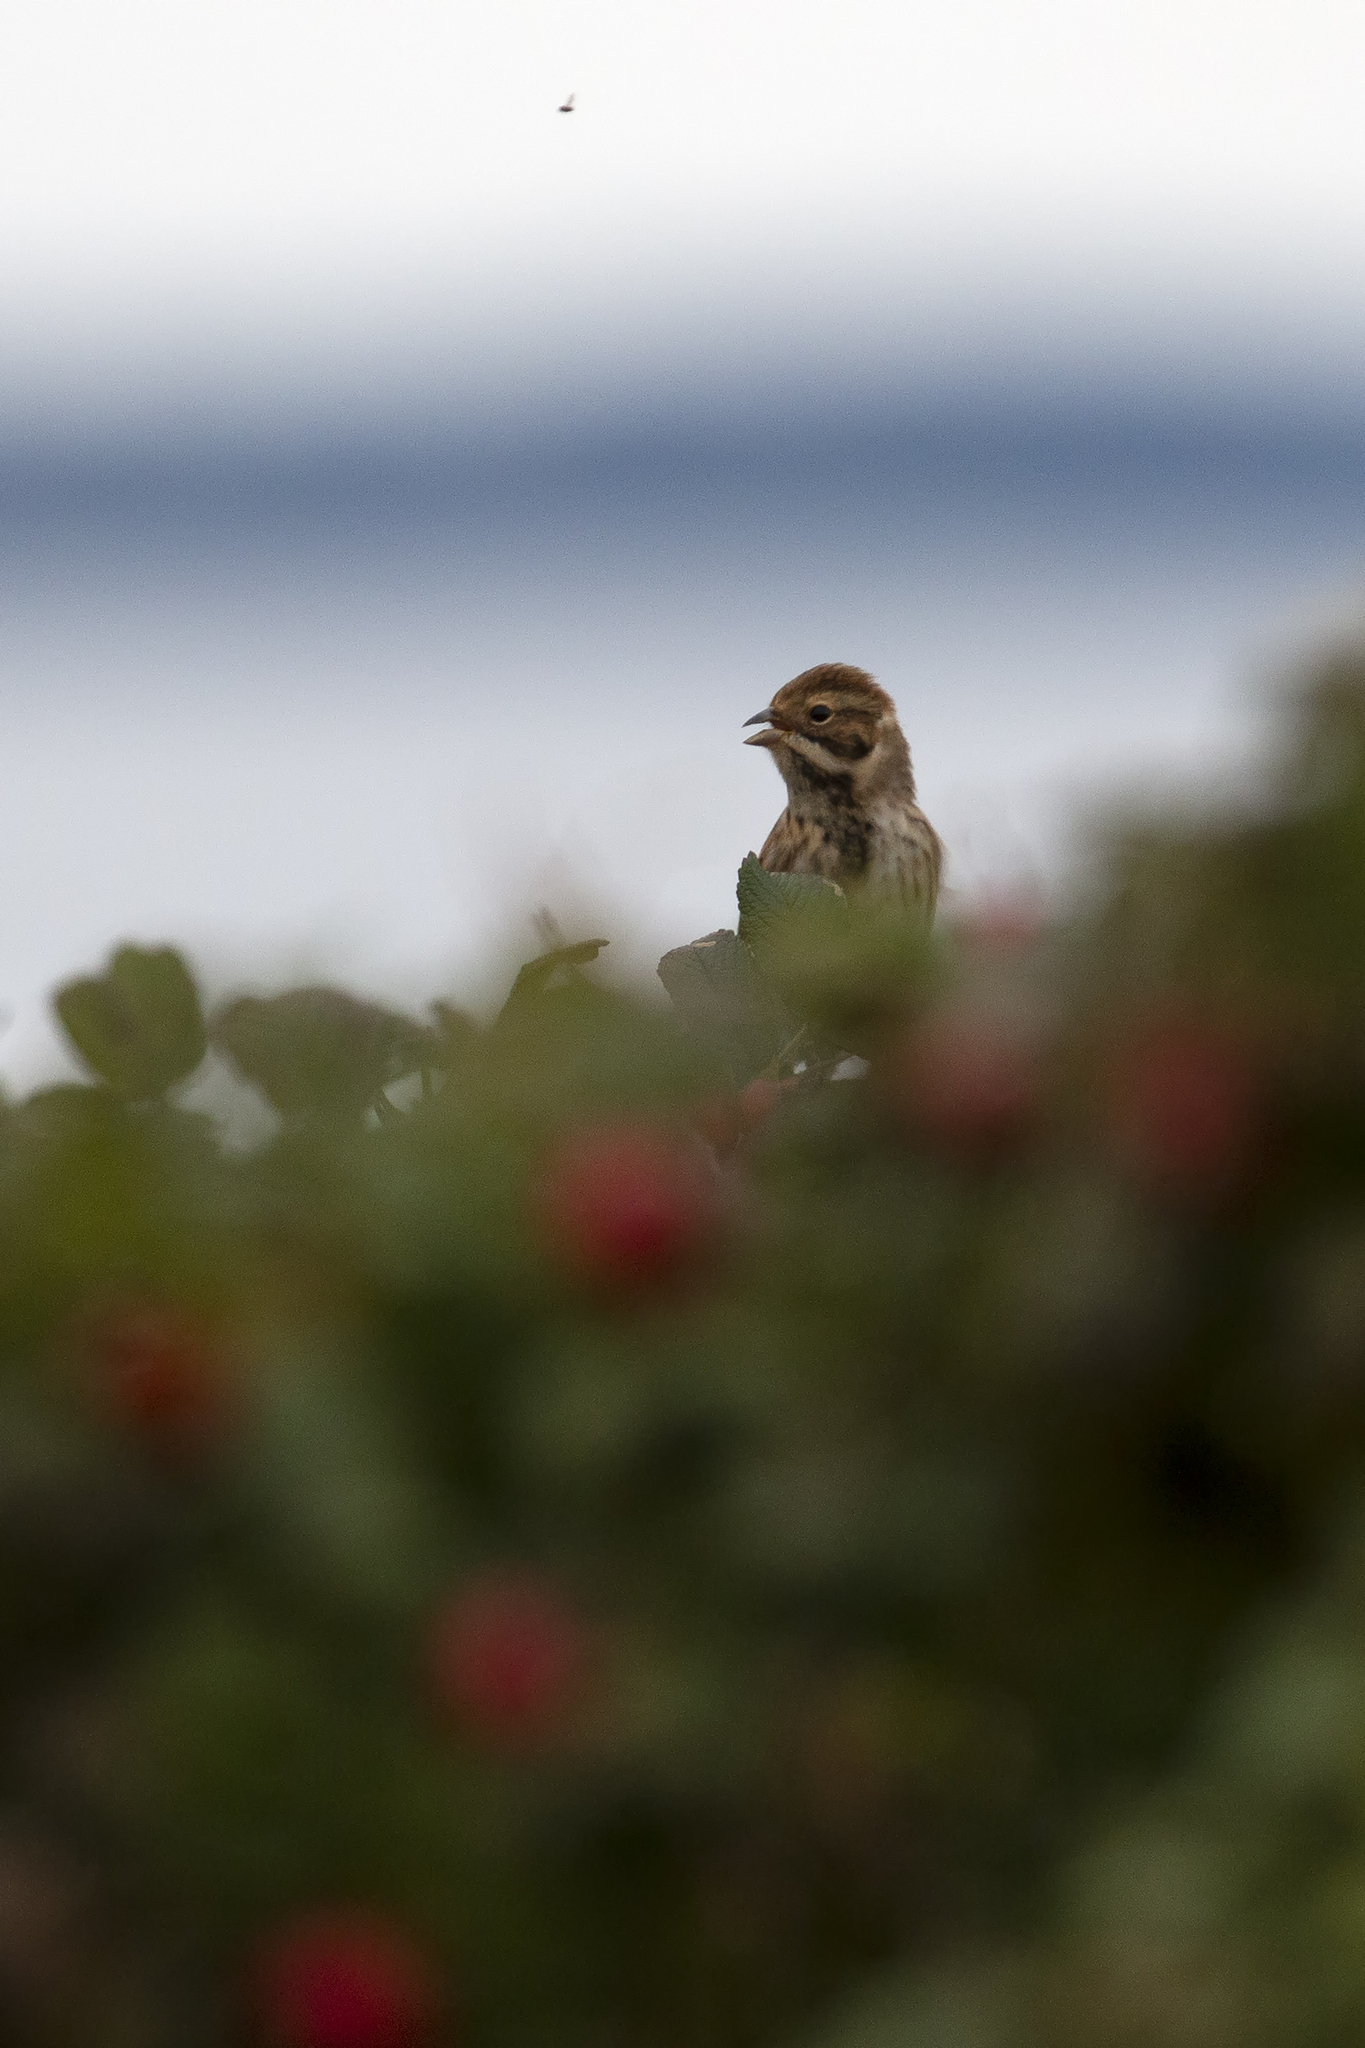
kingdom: Animalia
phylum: Chordata
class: Aves
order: Passeriformes
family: Emberizidae
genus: Emberiza
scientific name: Emberiza schoeniclus
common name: Reed bunting
